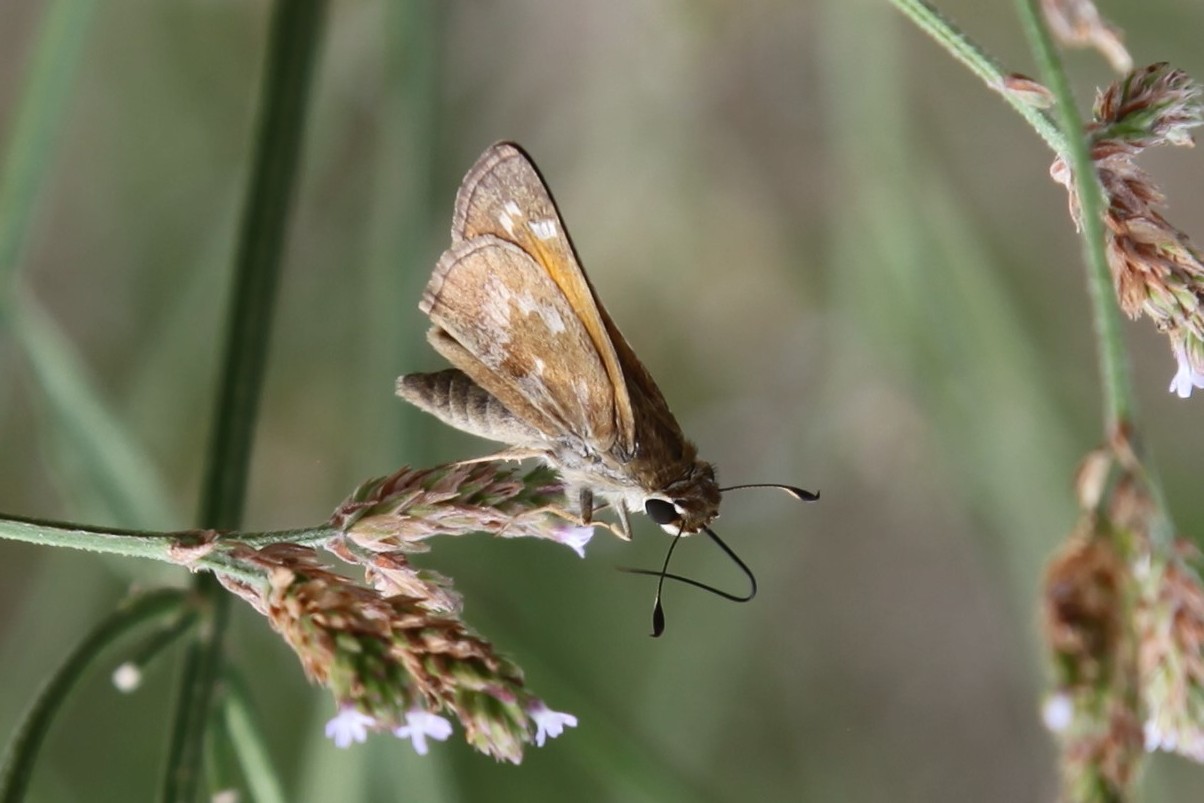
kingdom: Animalia
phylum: Arthropoda
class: Insecta
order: Lepidoptera
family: Hesperiidae
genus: Atalopedes
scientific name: Atalopedes
